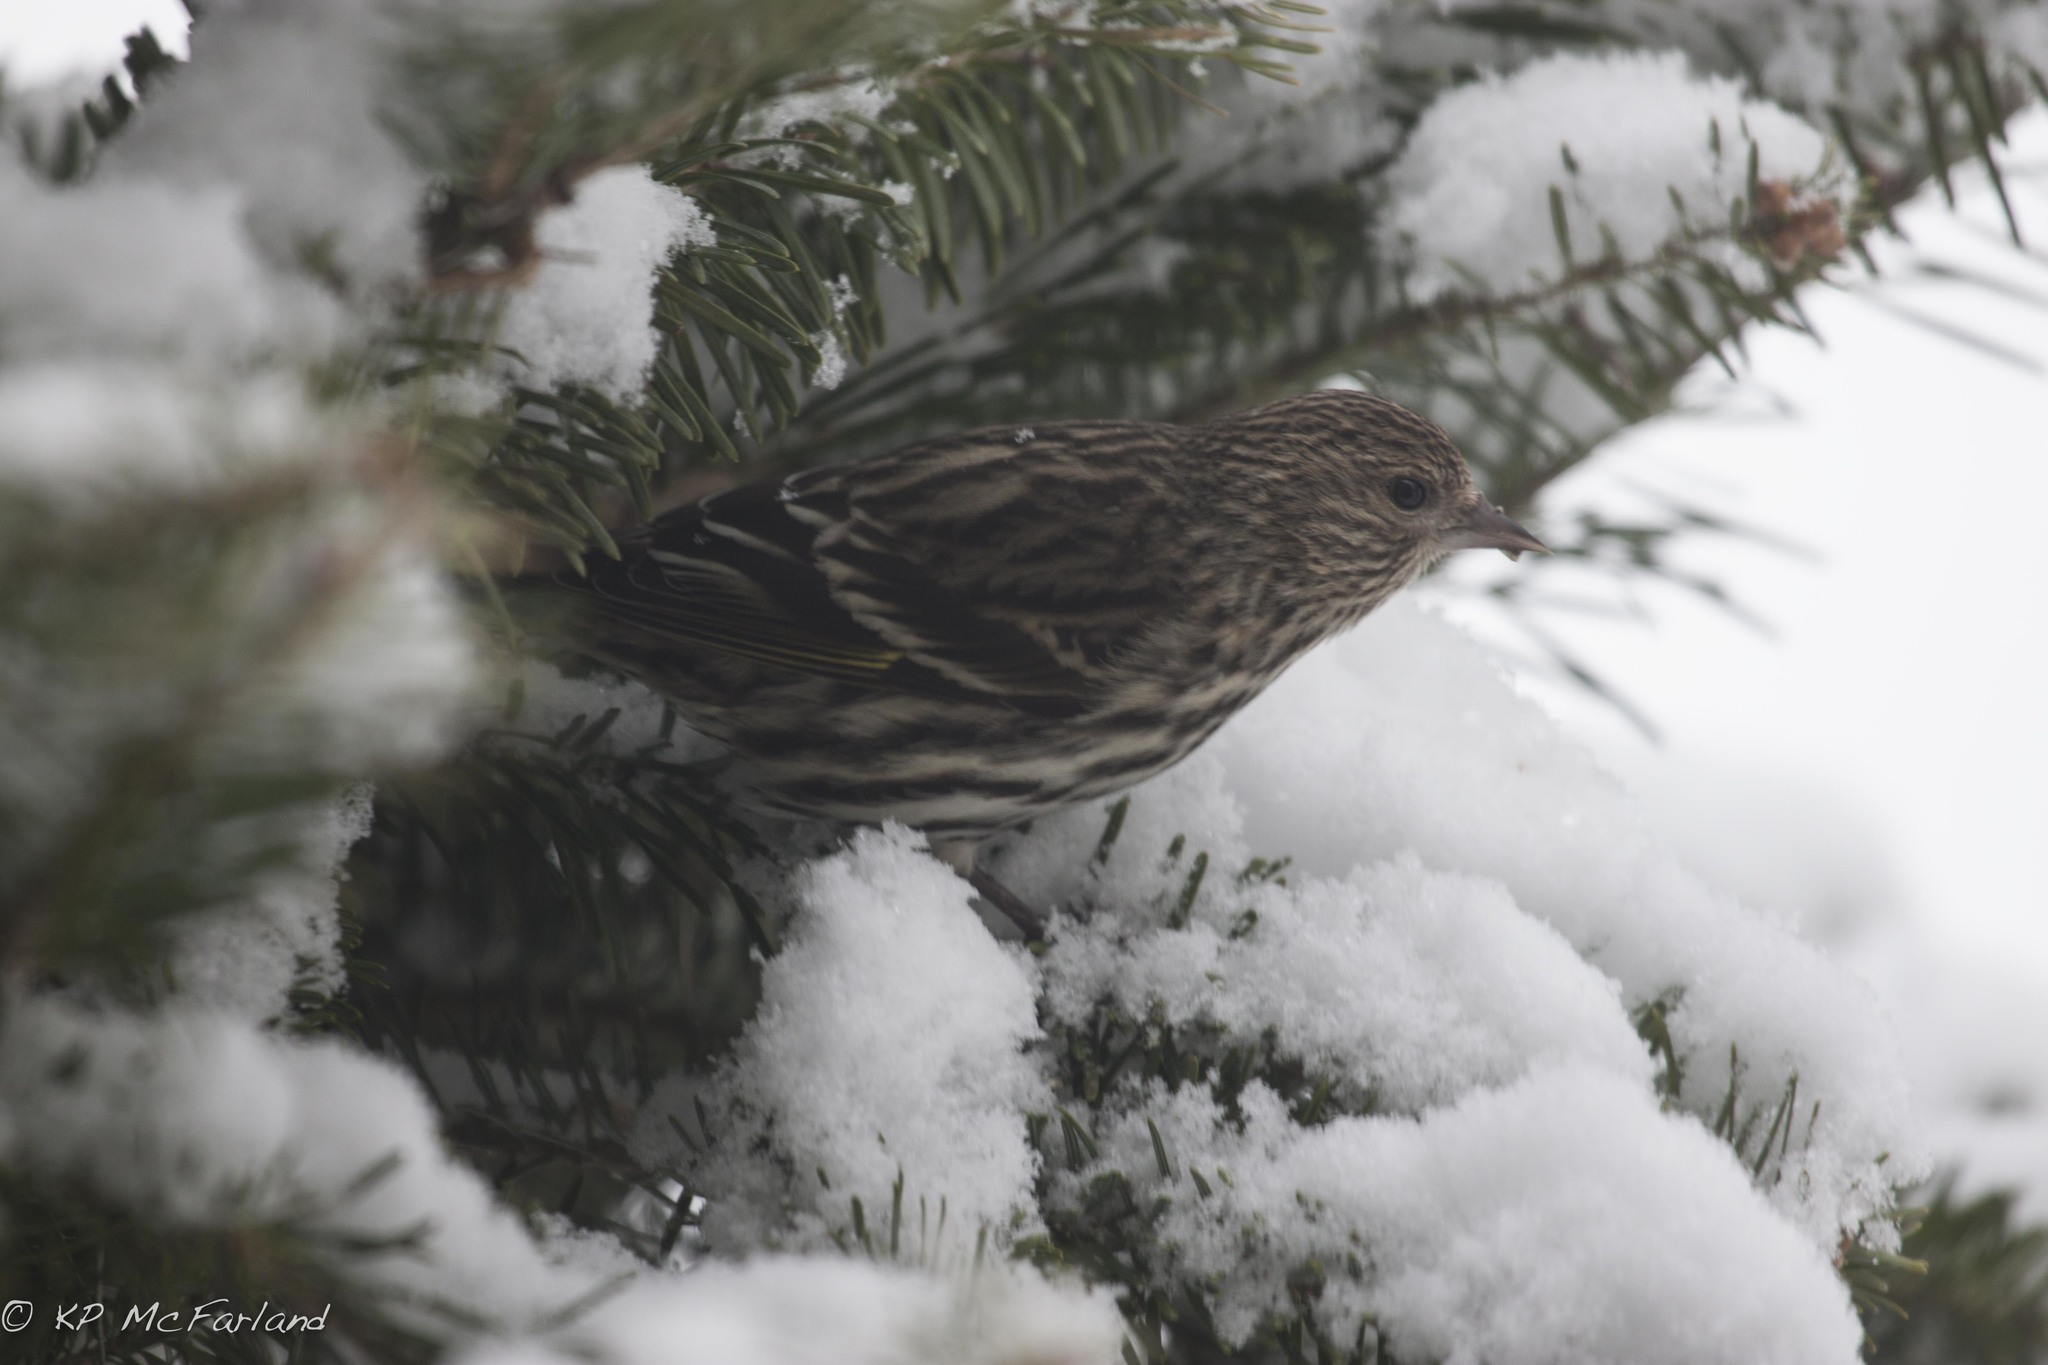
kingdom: Animalia
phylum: Chordata
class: Aves
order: Passeriformes
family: Fringillidae
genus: Spinus
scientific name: Spinus pinus
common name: Pine siskin
